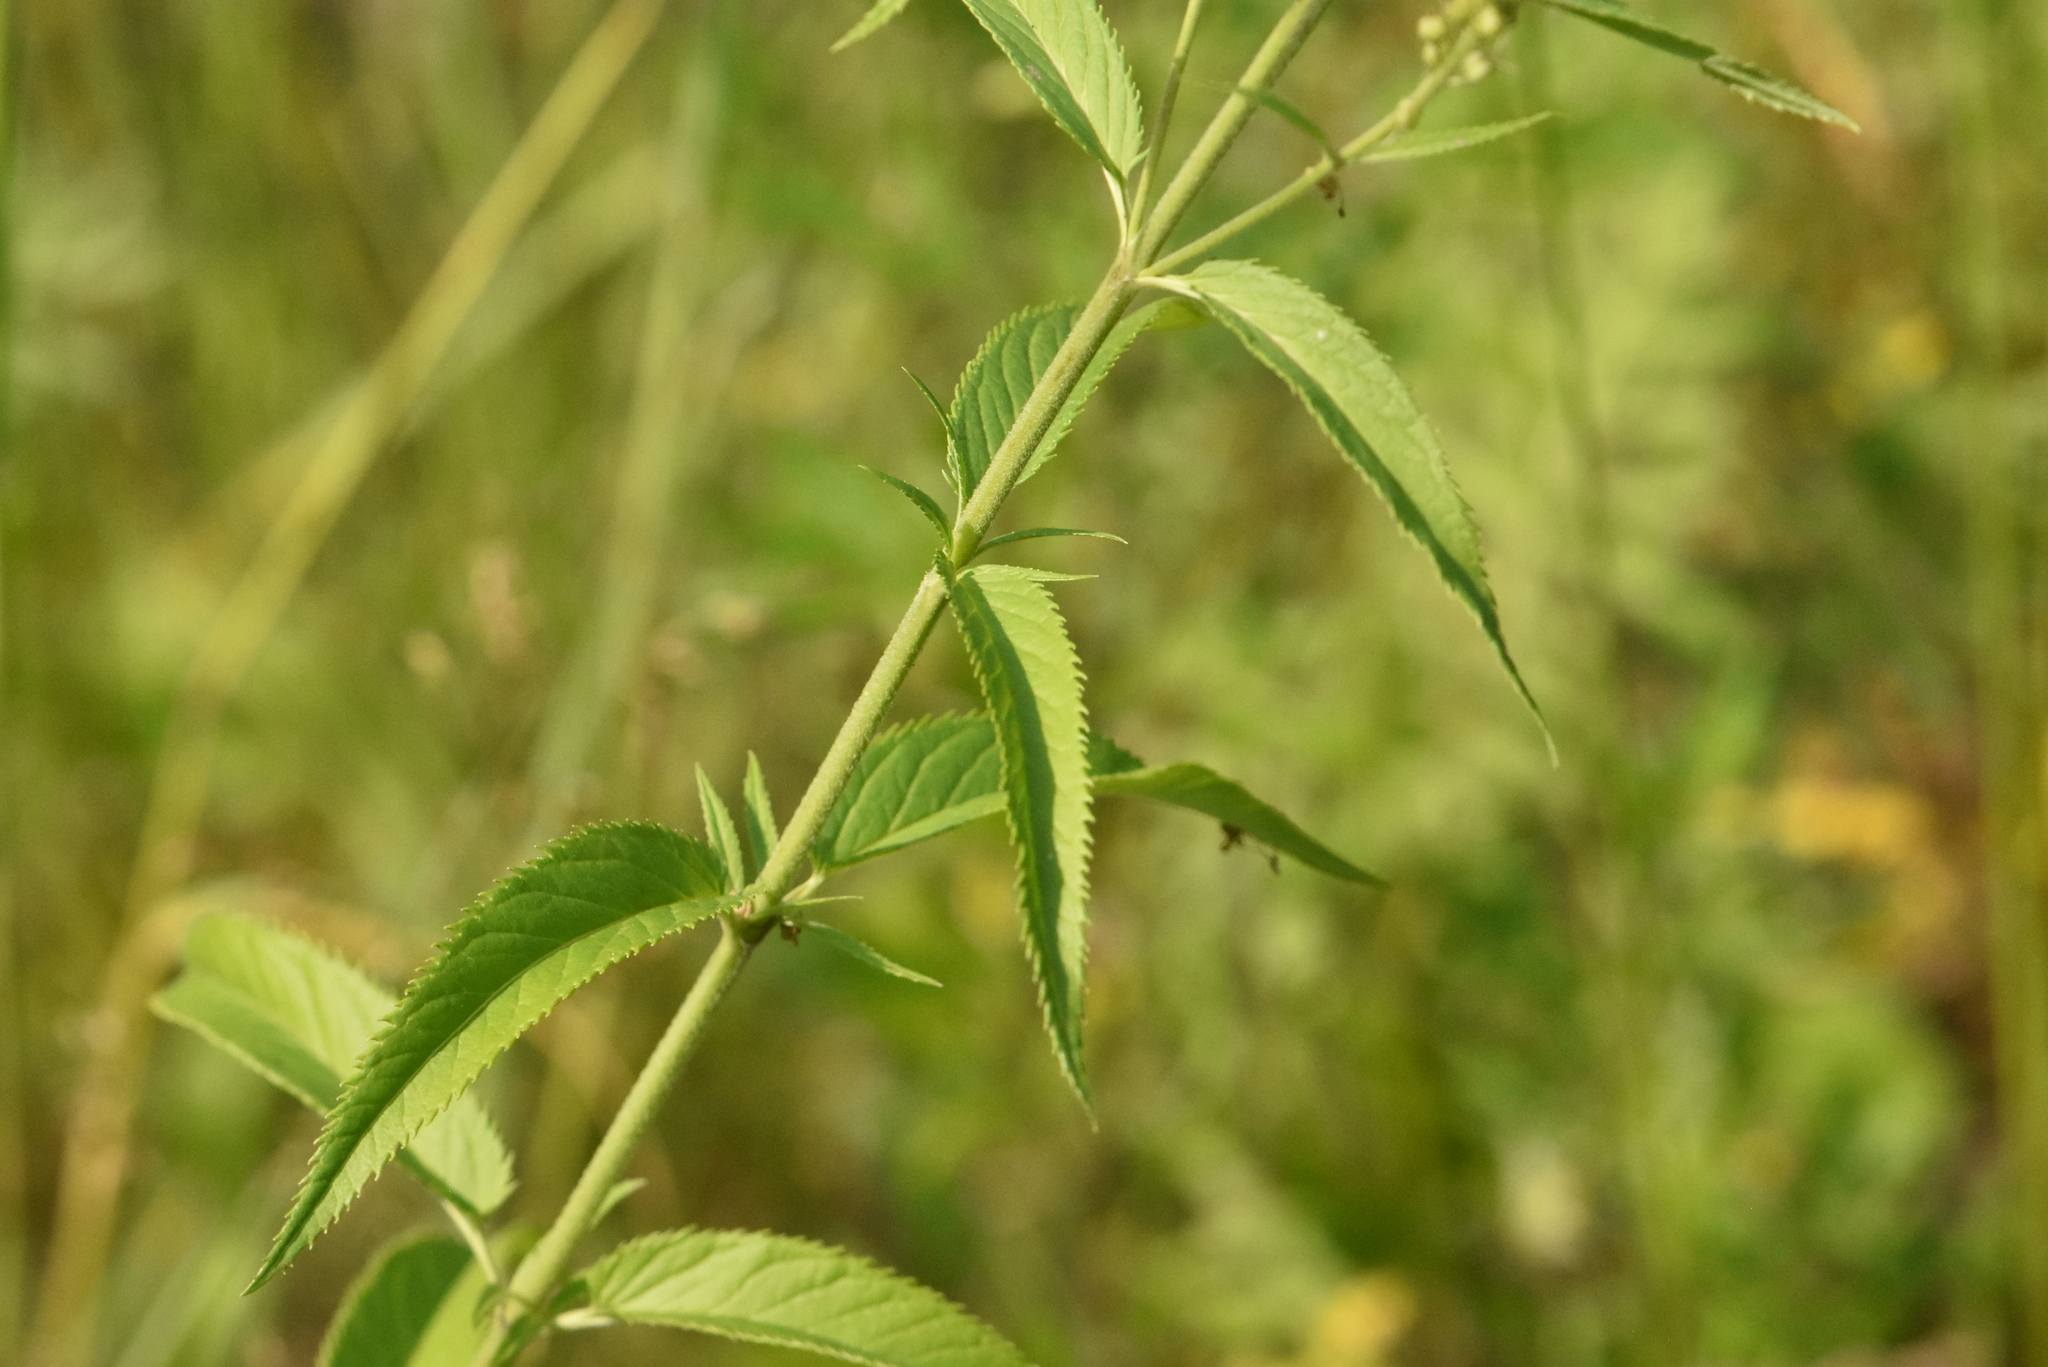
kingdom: Plantae
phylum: Tracheophyta
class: Magnoliopsida
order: Lamiales
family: Plantaginaceae
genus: Veronica
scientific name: Veronica longifolia
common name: Garden speedwell
